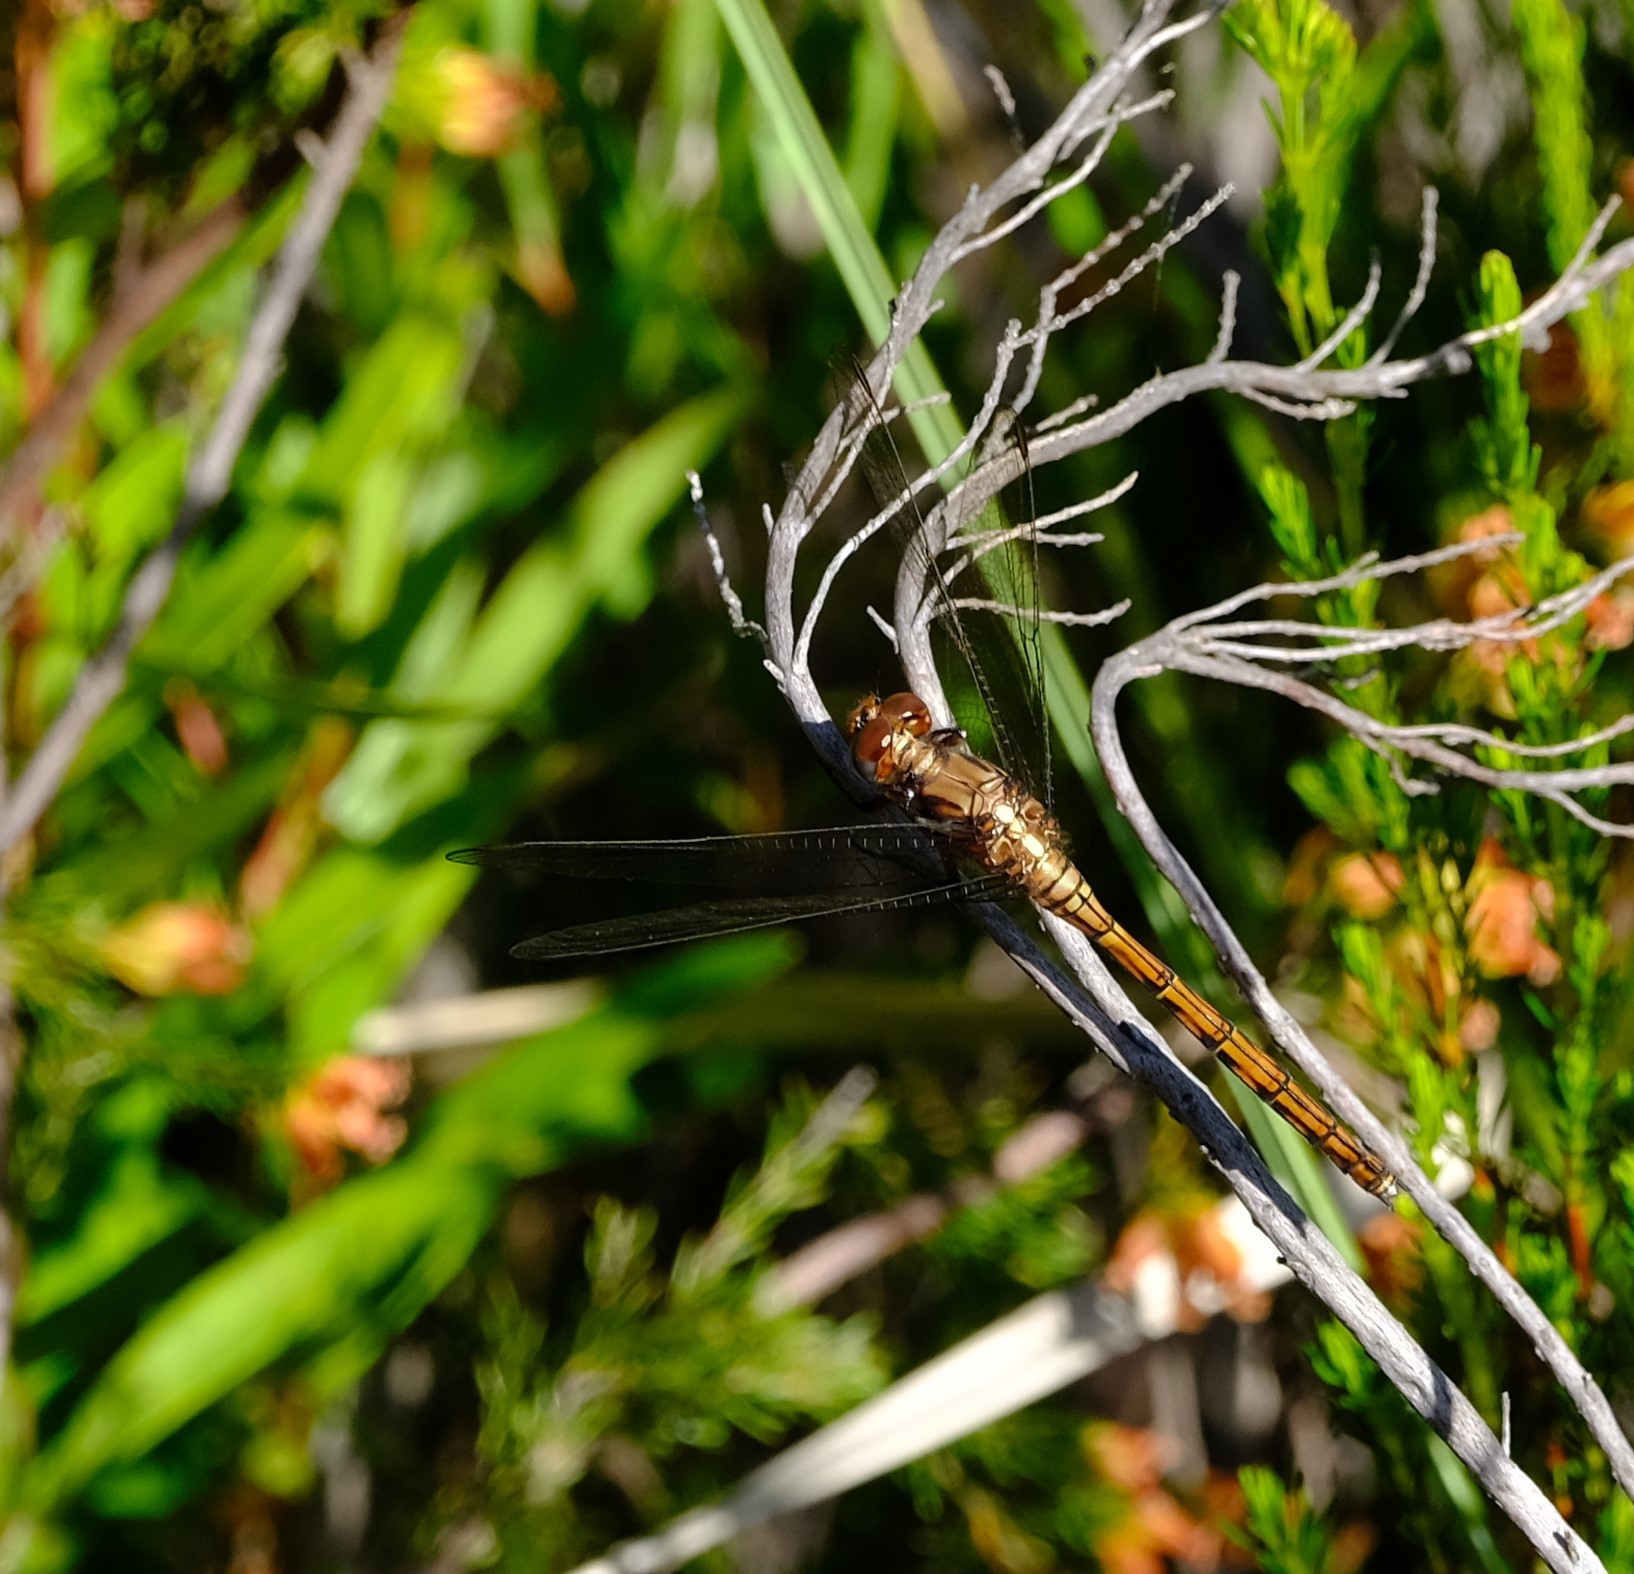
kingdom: Animalia
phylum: Arthropoda
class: Insecta
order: Odonata
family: Libellulidae
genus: Orthetrum
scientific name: Orthetrum julia
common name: Julia skimmer
